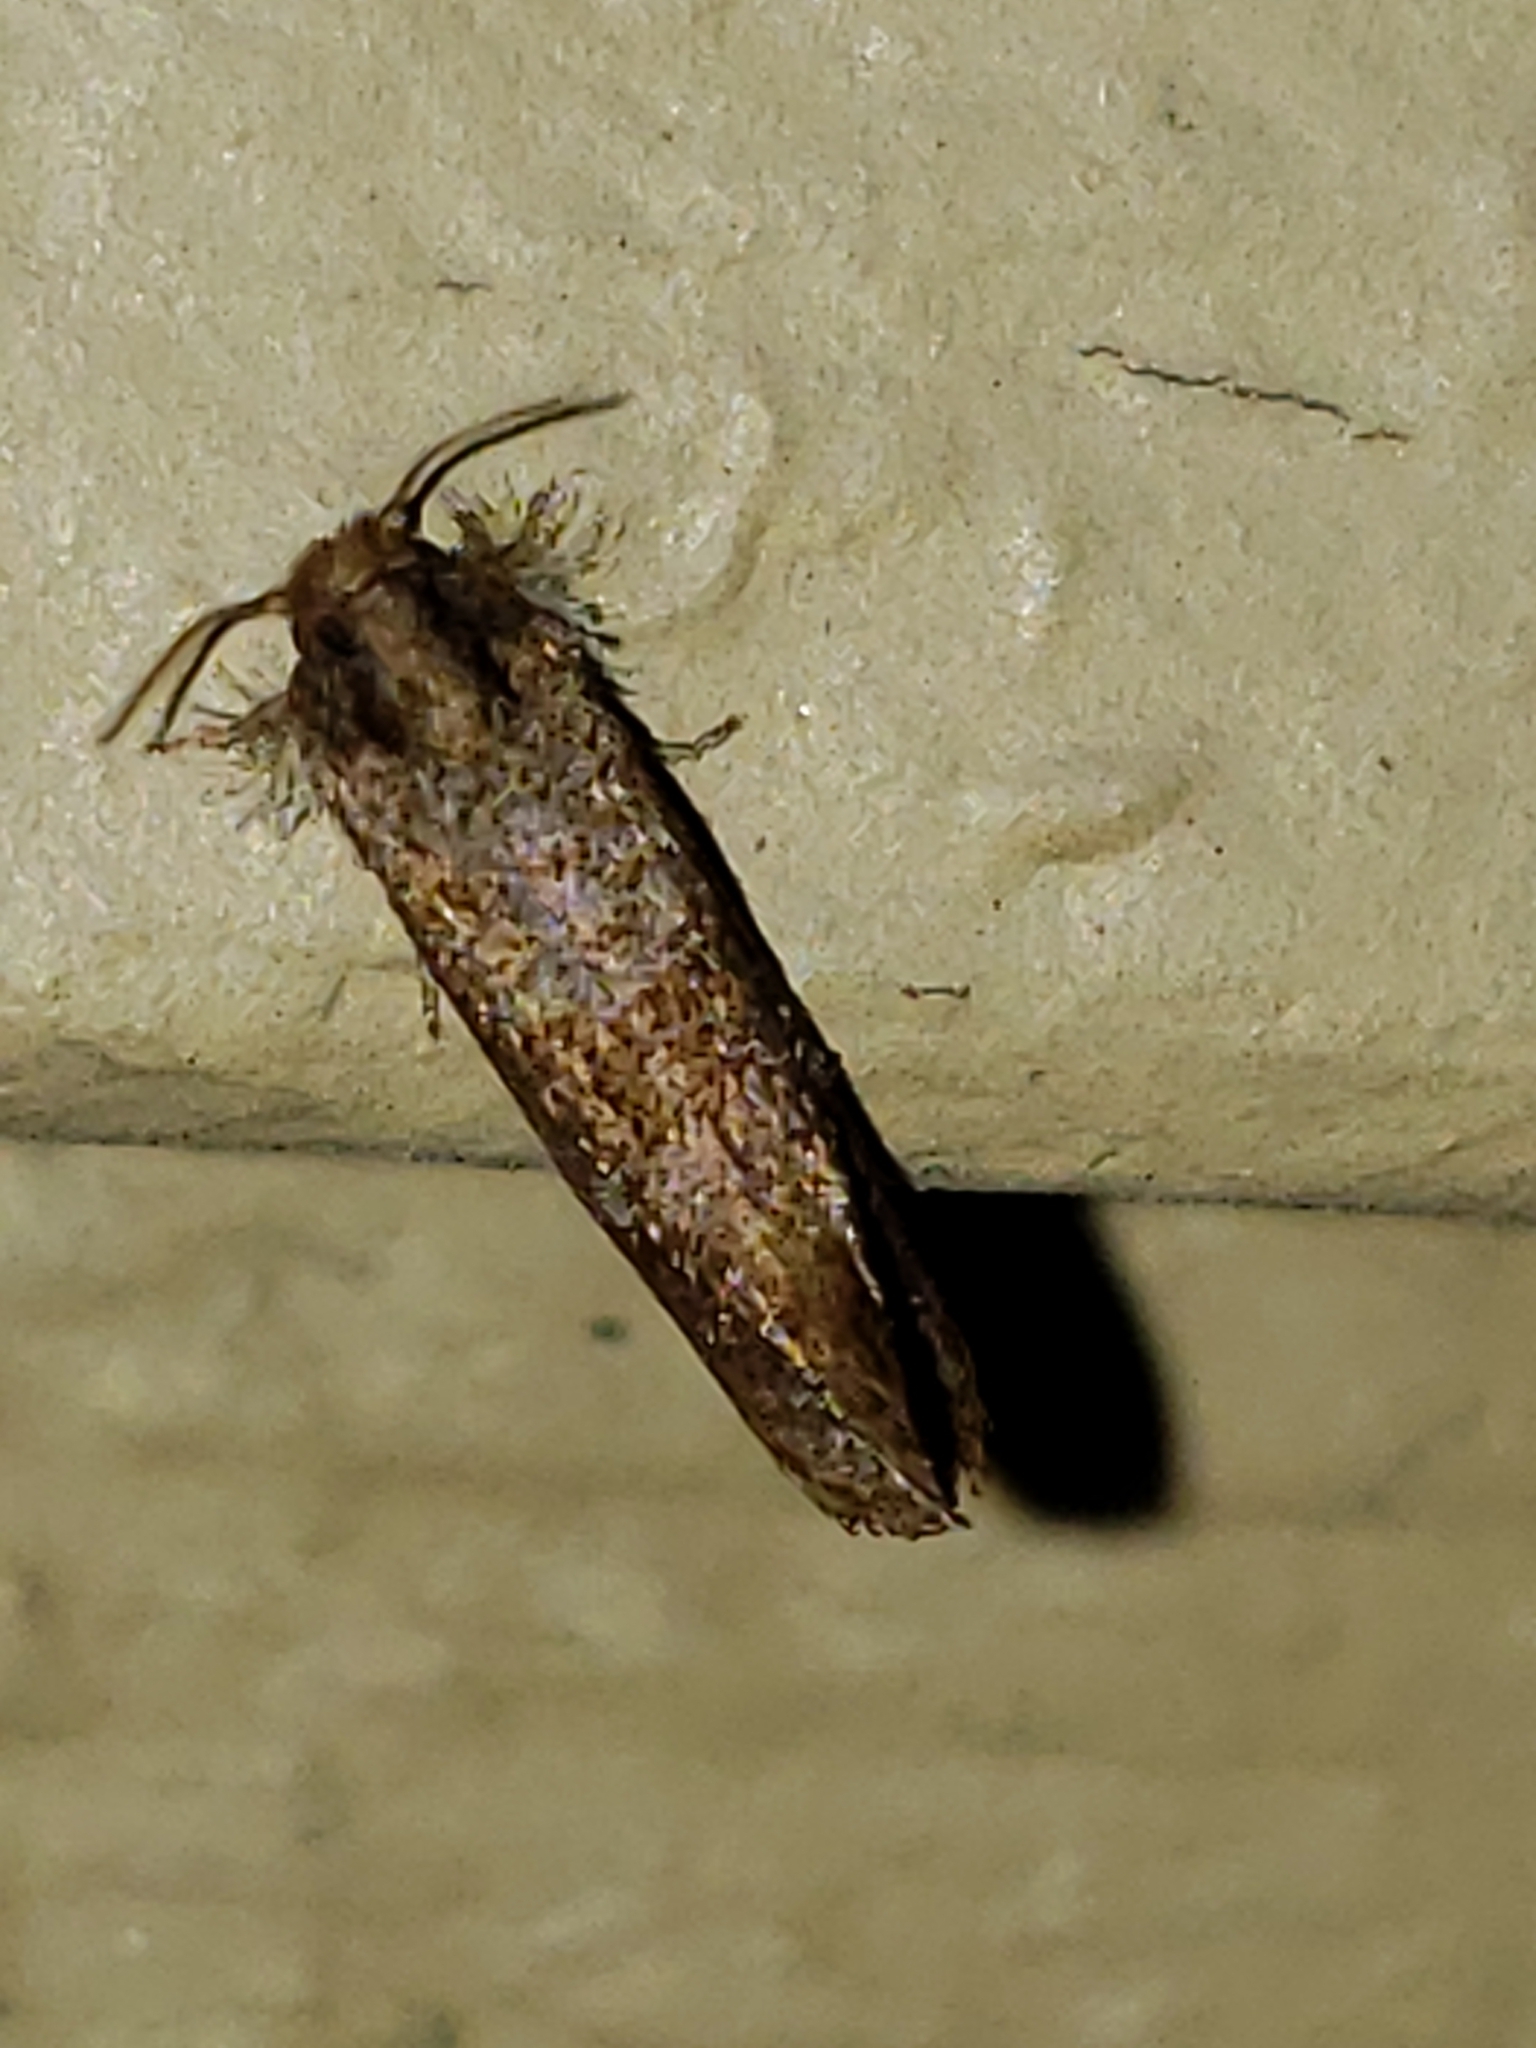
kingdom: Animalia
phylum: Arthropoda
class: Insecta
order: Lepidoptera
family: Tineidae
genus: Acrolophus
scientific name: Acrolophus panamae
